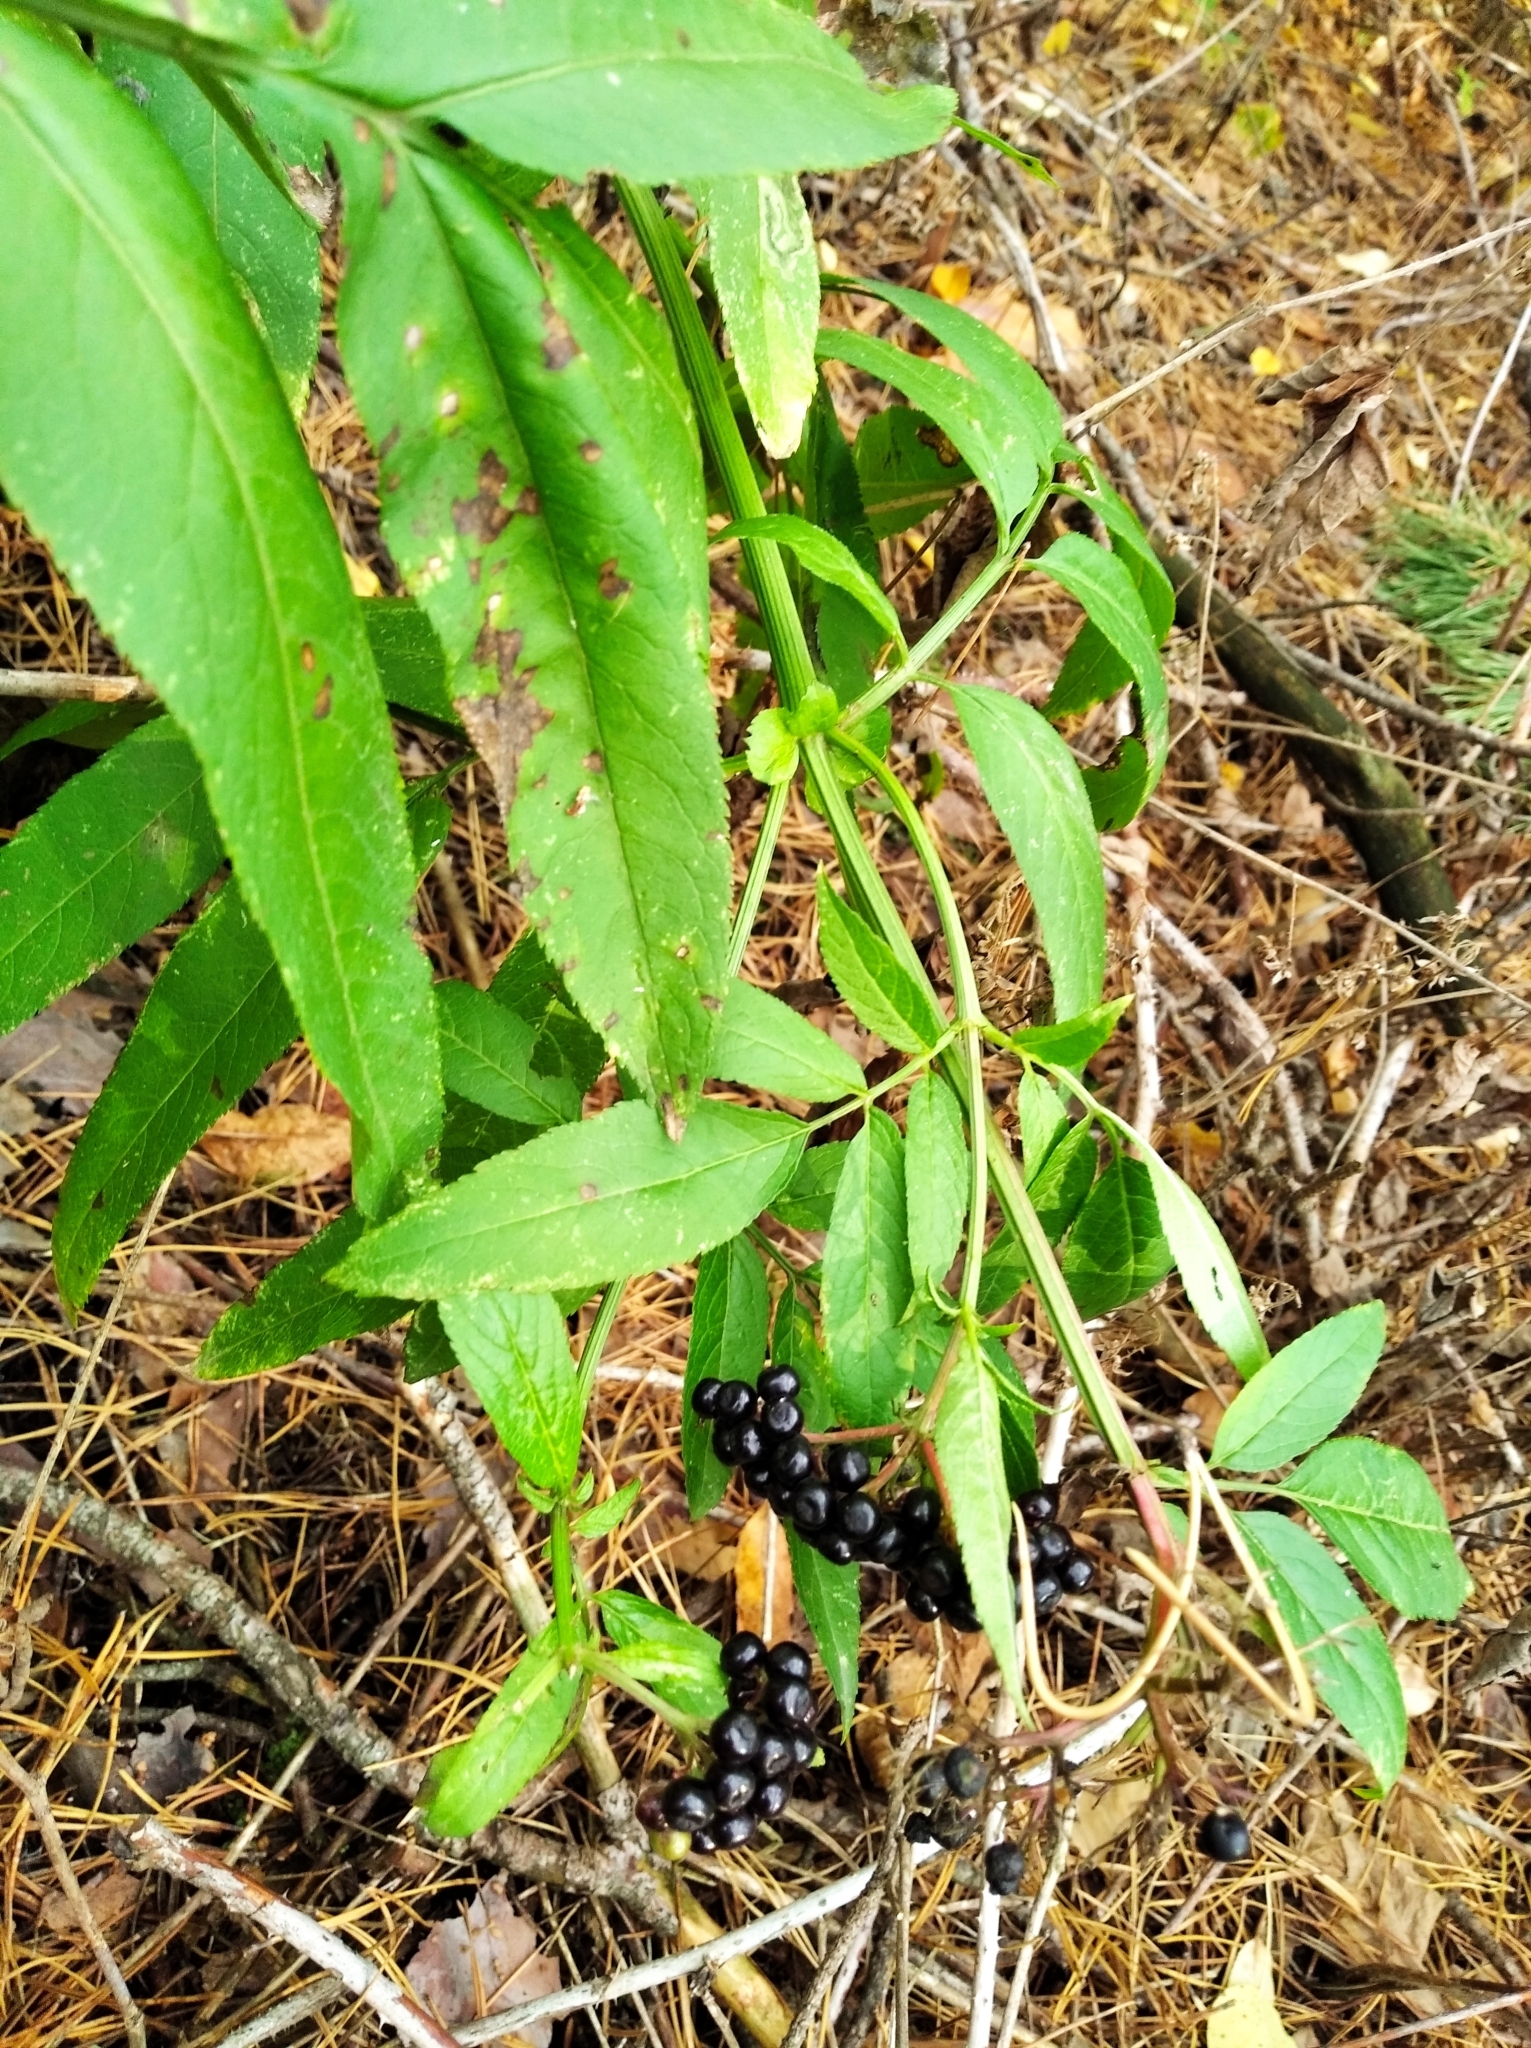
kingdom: Plantae
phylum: Tracheophyta
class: Magnoliopsida
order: Dipsacales
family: Viburnaceae
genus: Sambucus
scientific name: Sambucus ebulus
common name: Dwarf elder
